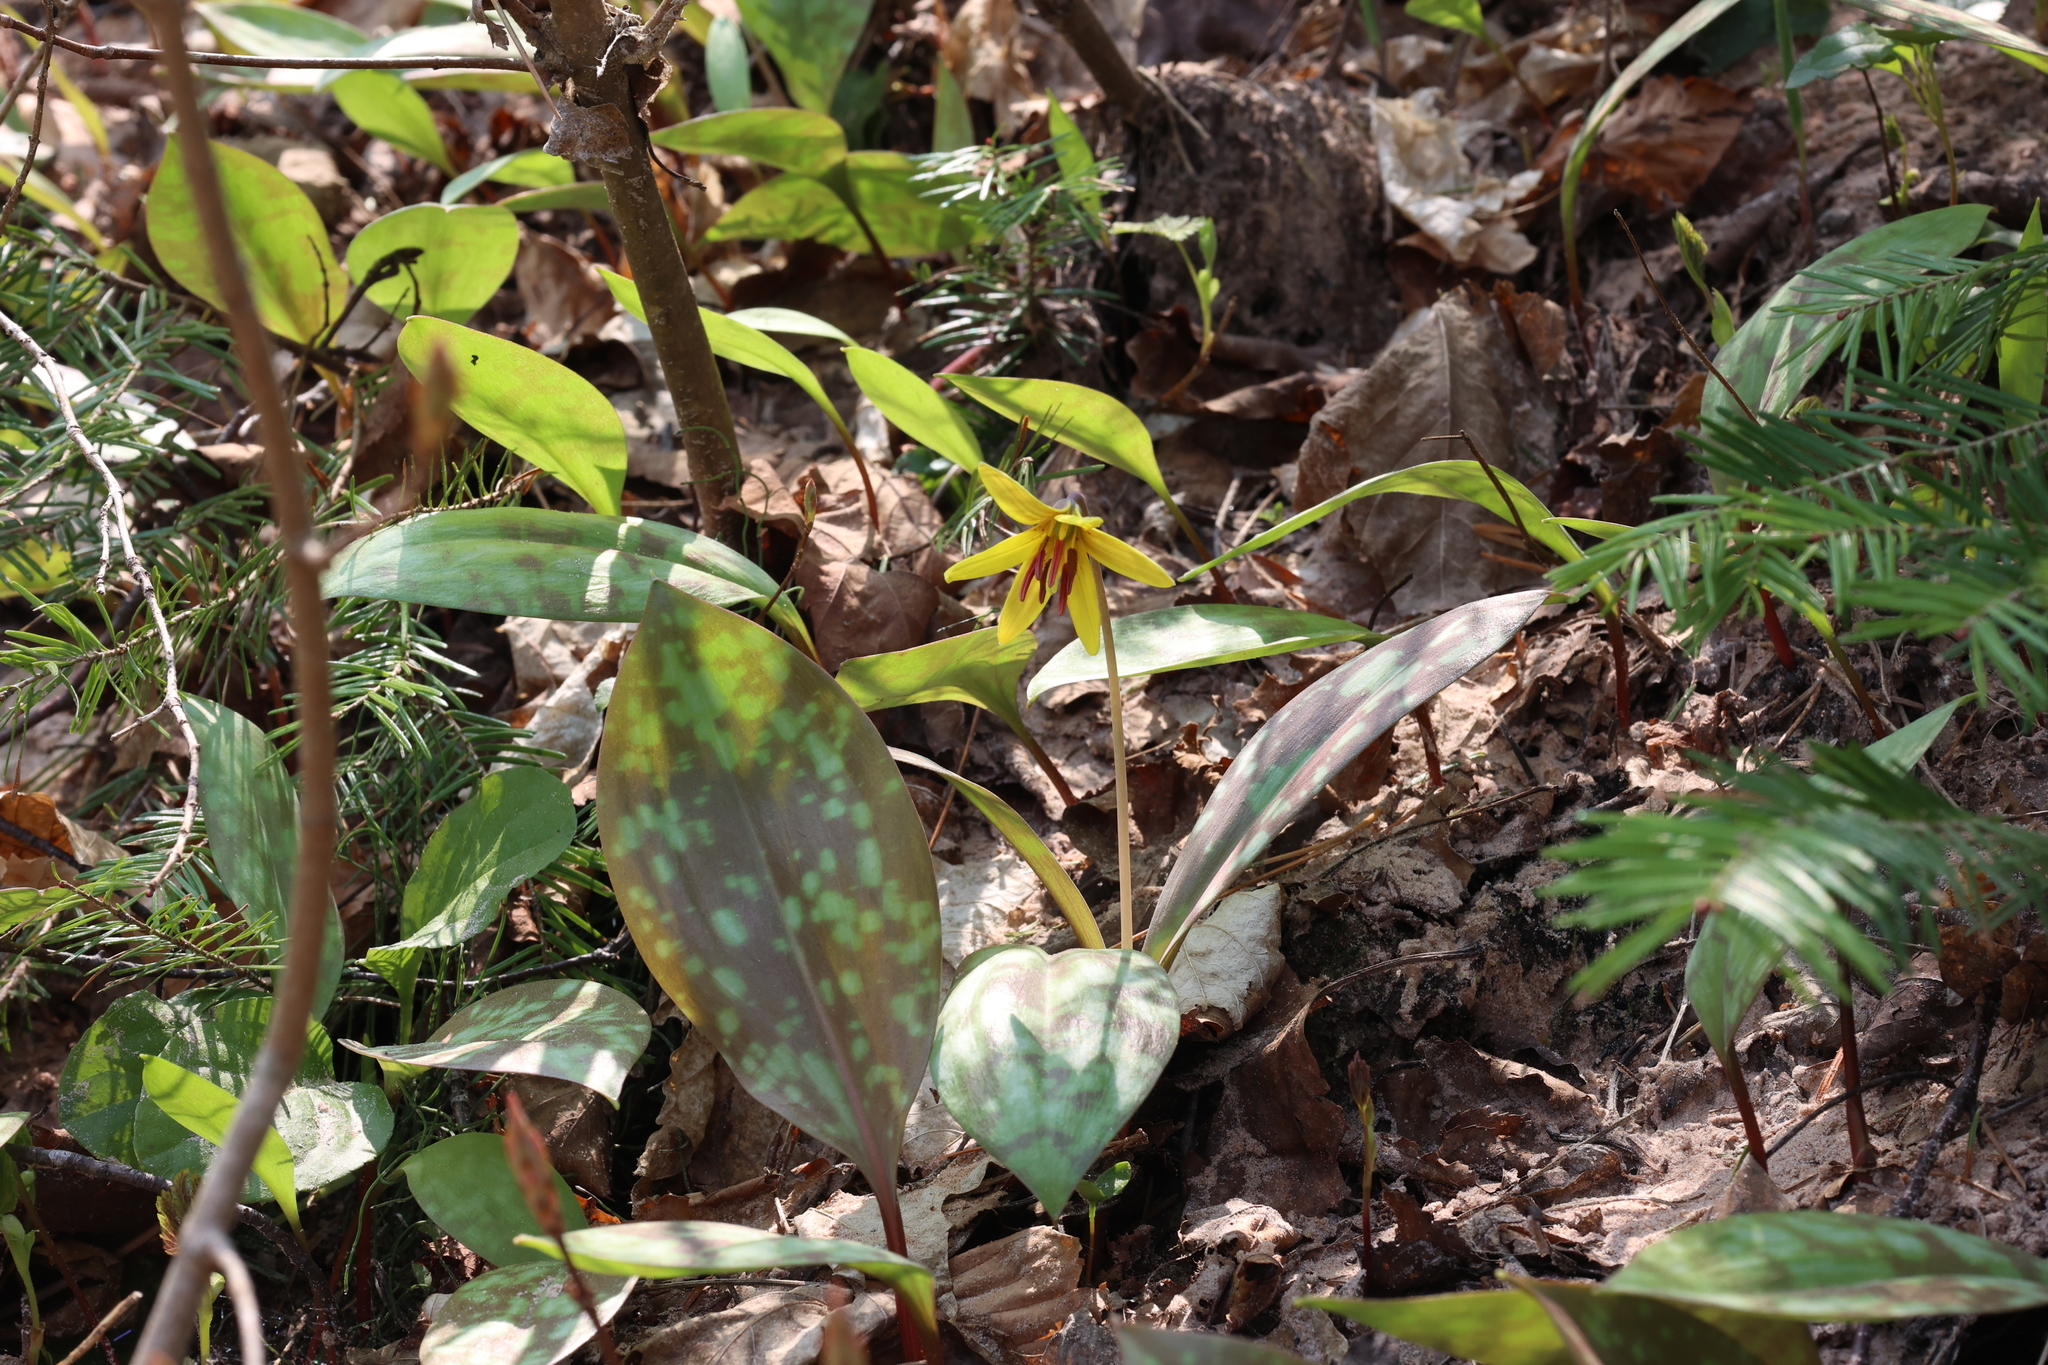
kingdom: Plantae
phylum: Tracheophyta
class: Liliopsida
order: Liliales
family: Liliaceae
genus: Erythronium
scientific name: Erythronium americanum
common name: Yellow adder's-tongue
